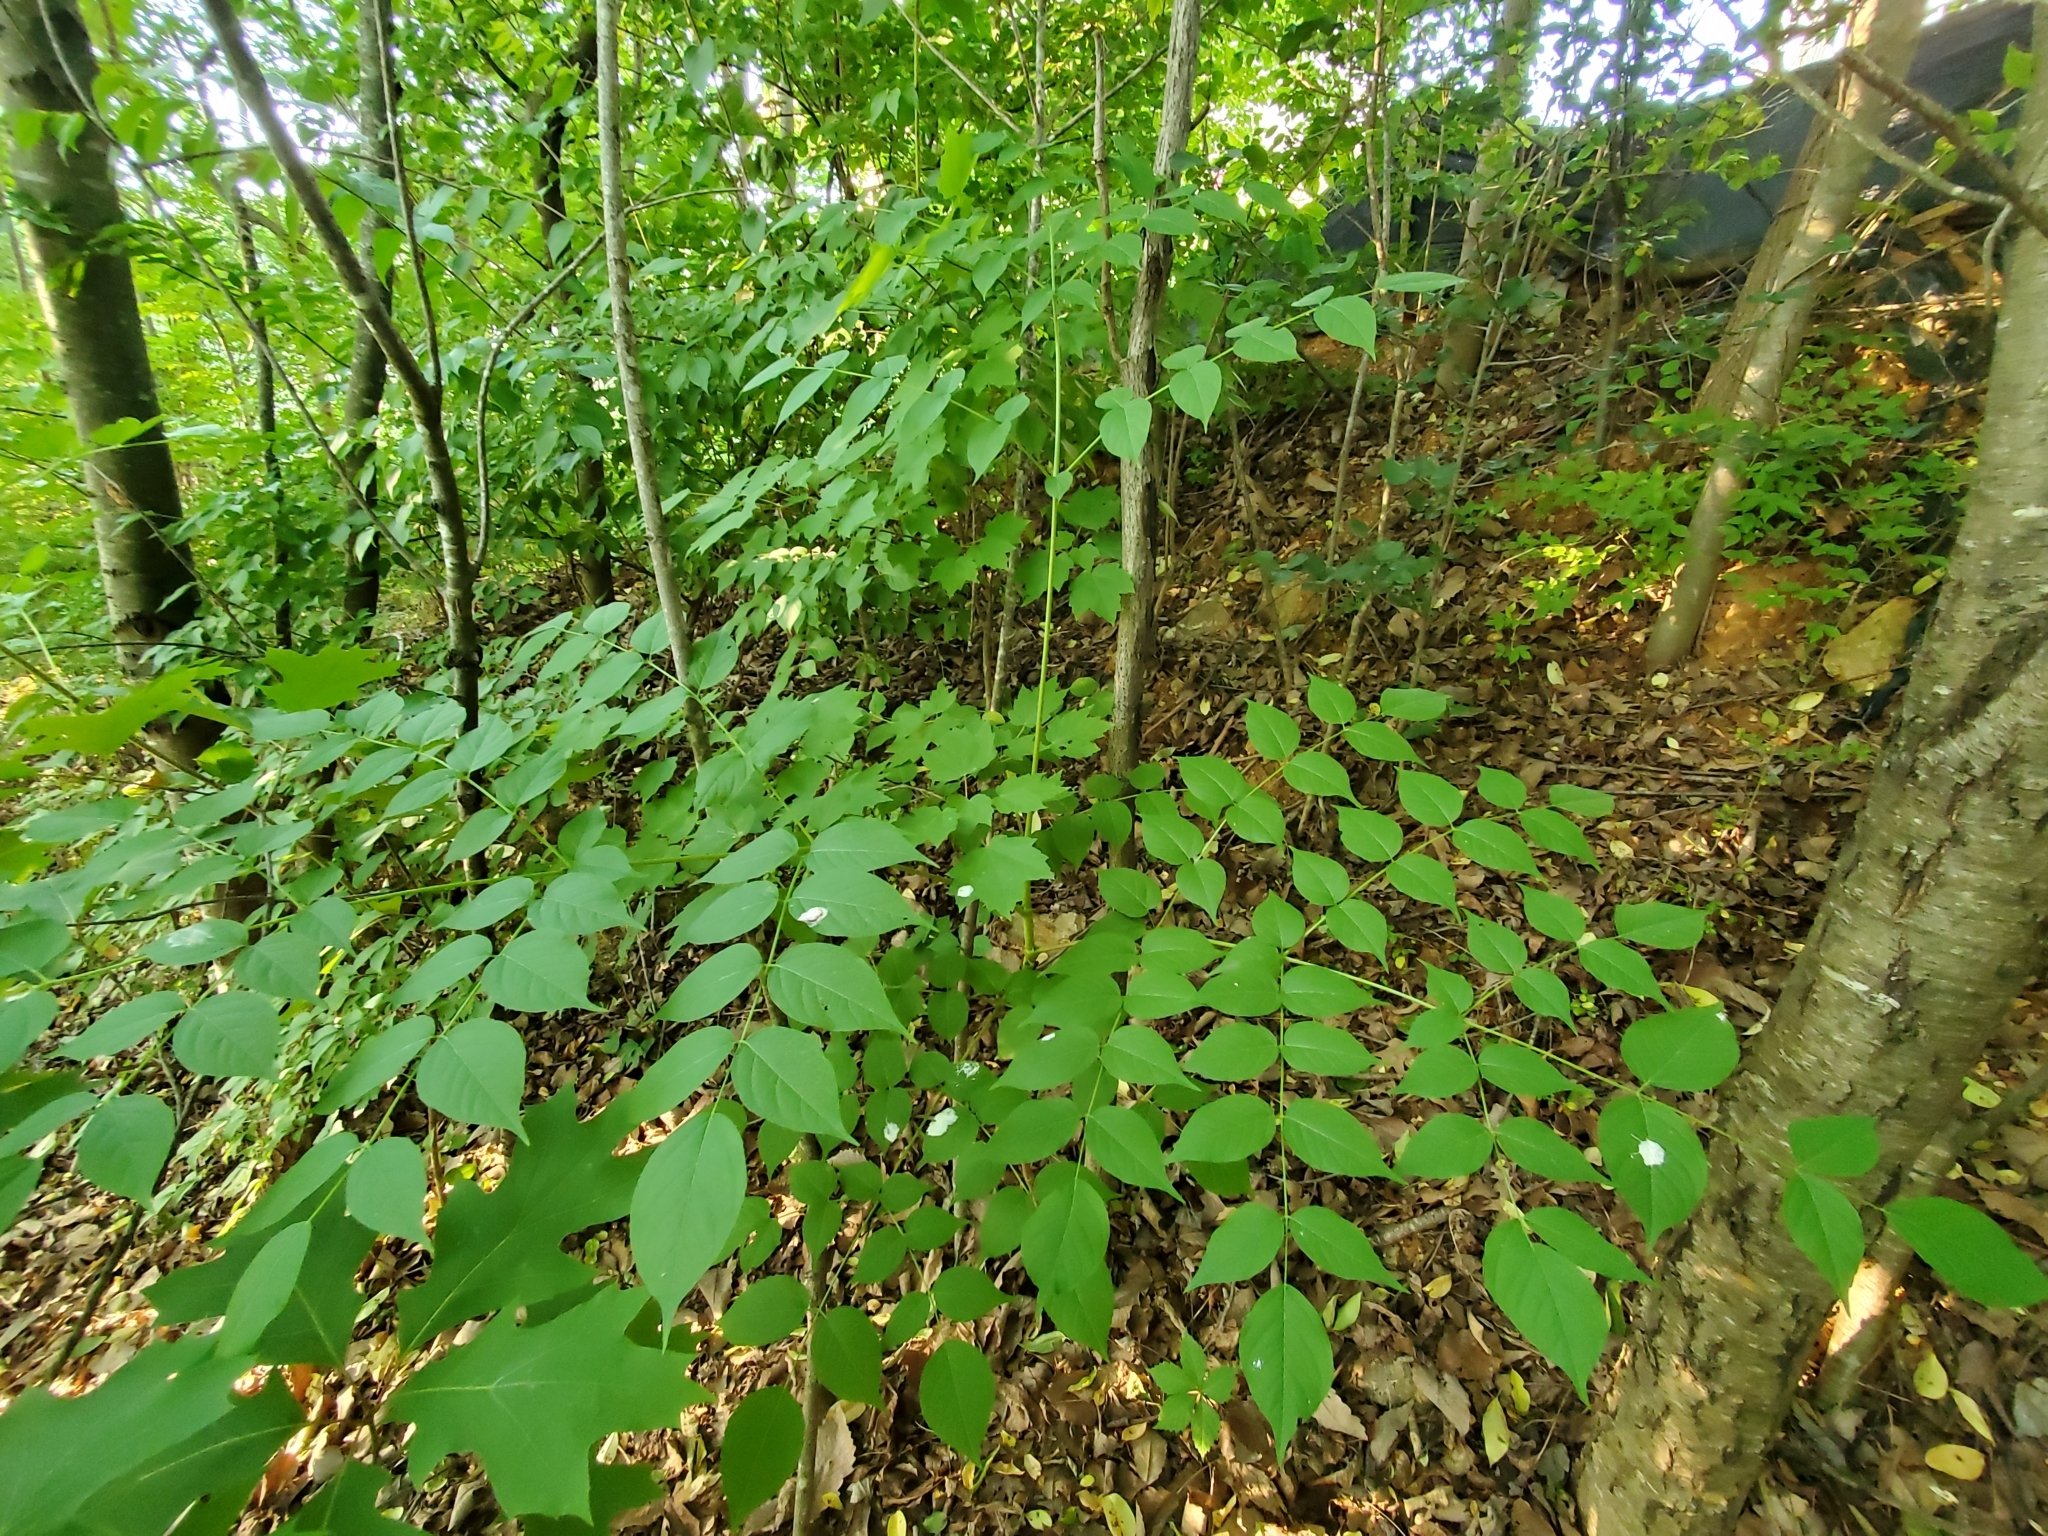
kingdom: Plantae
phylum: Tracheophyta
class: Magnoliopsida
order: Apiales
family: Araliaceae
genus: Aralia
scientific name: Aralia spinosa
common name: Hercules'-club
